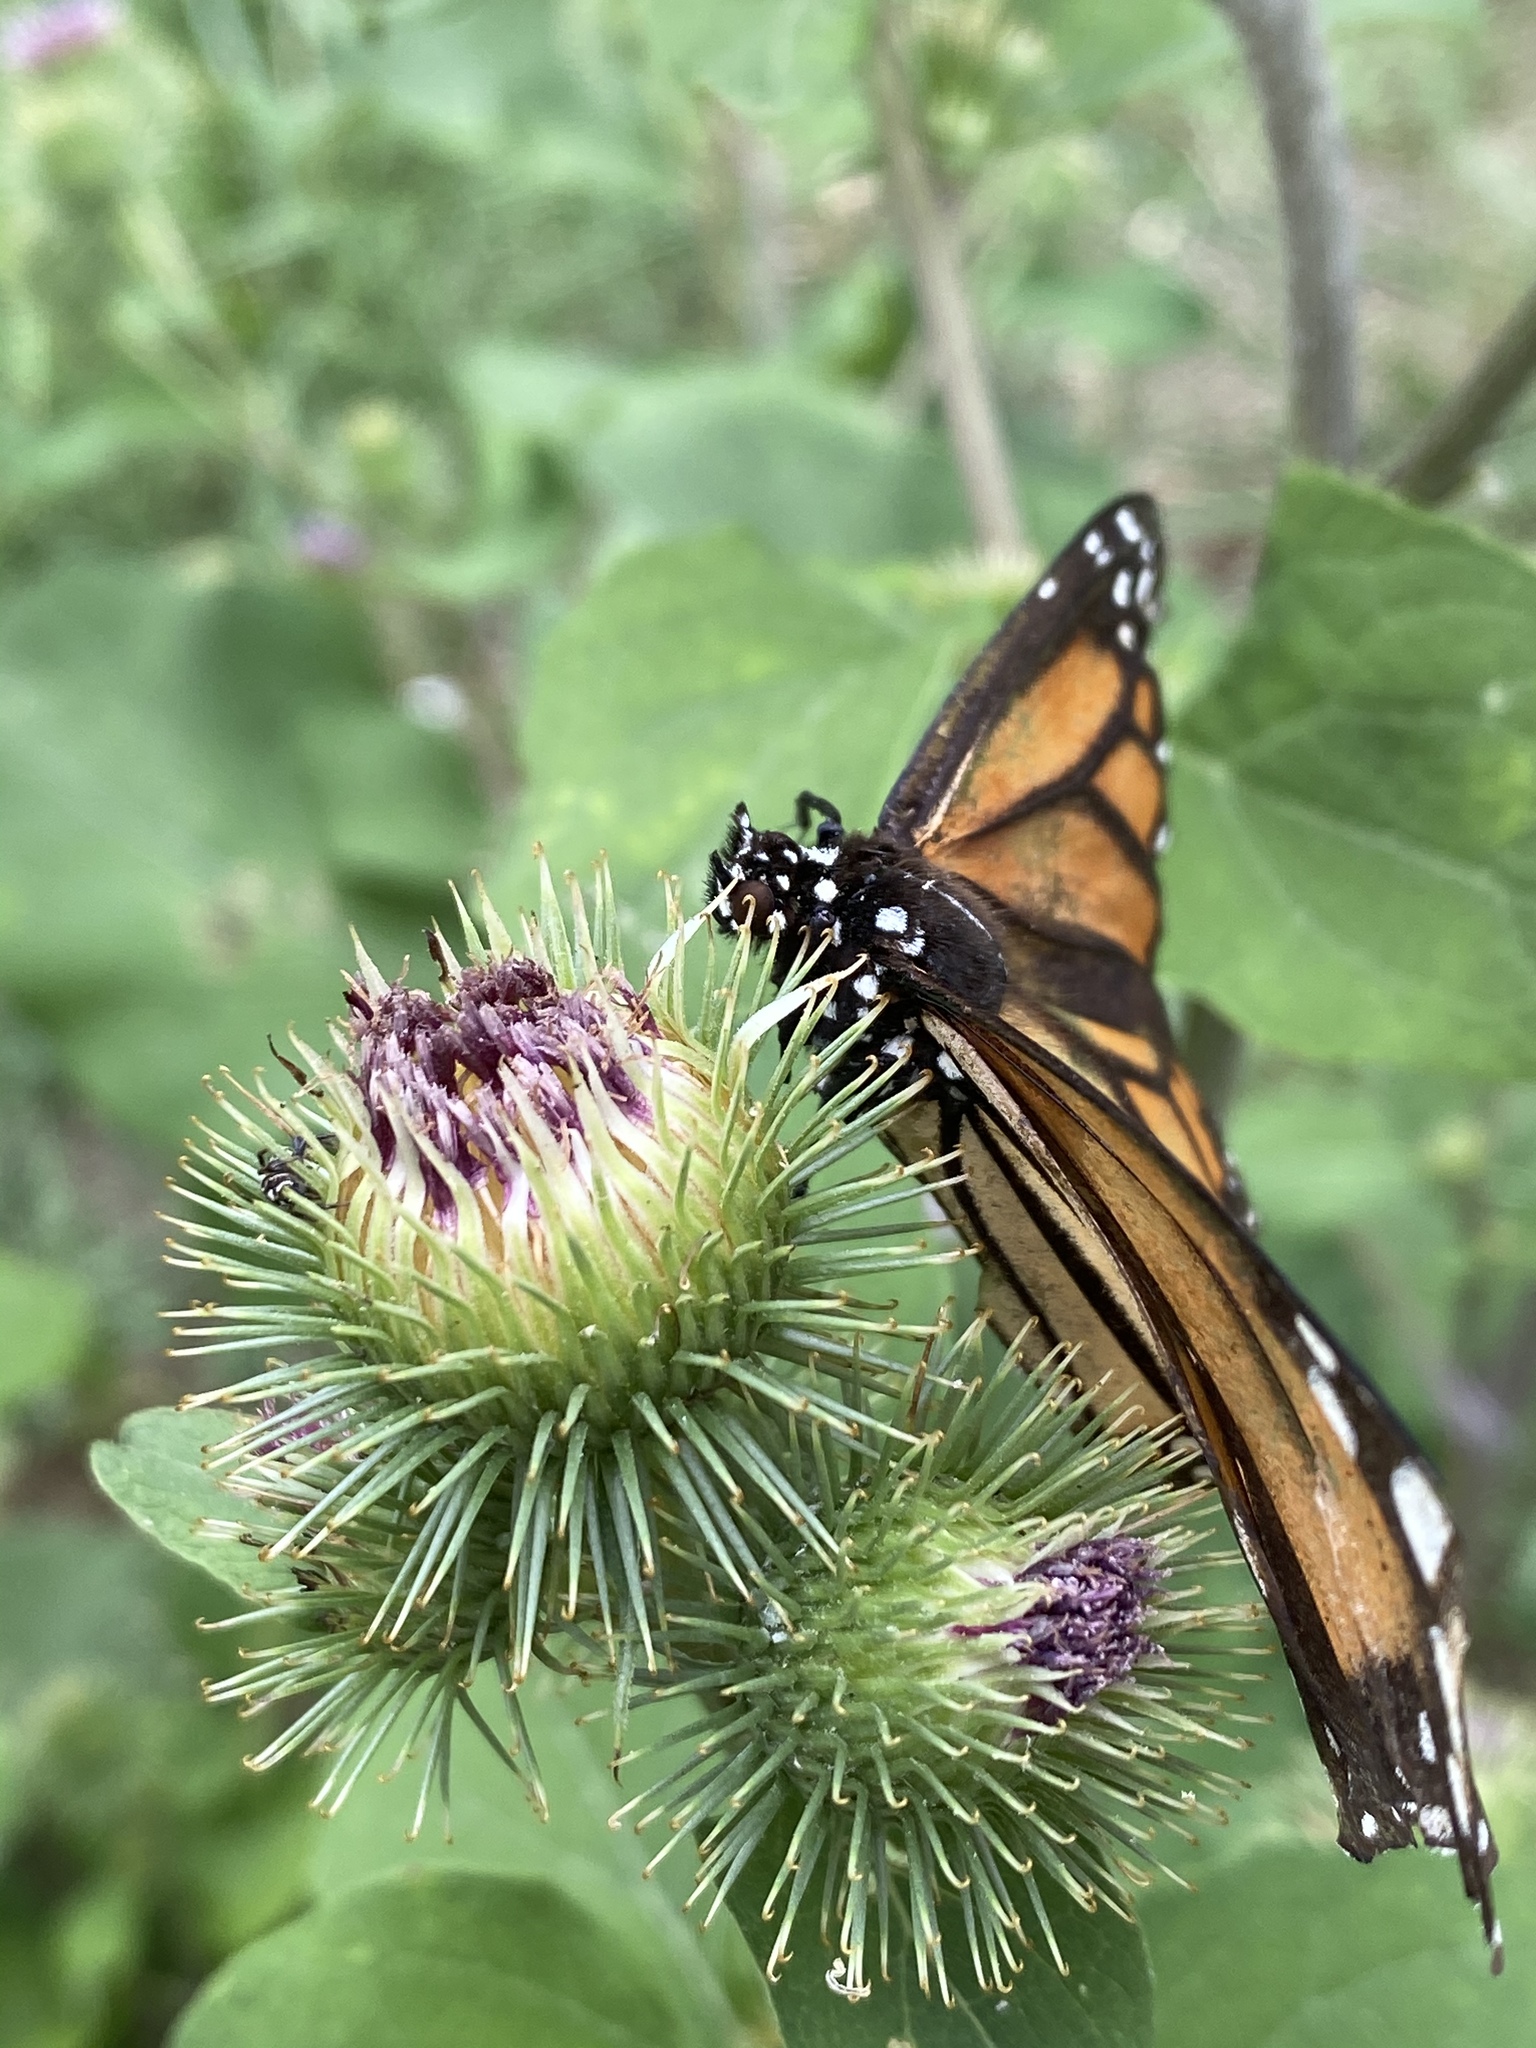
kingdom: Animalia
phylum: Arthropoda
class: Insecta
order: Lepidoptera
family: Nymphalidae
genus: Danaus
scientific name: Danaus plexippus
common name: Monarch
